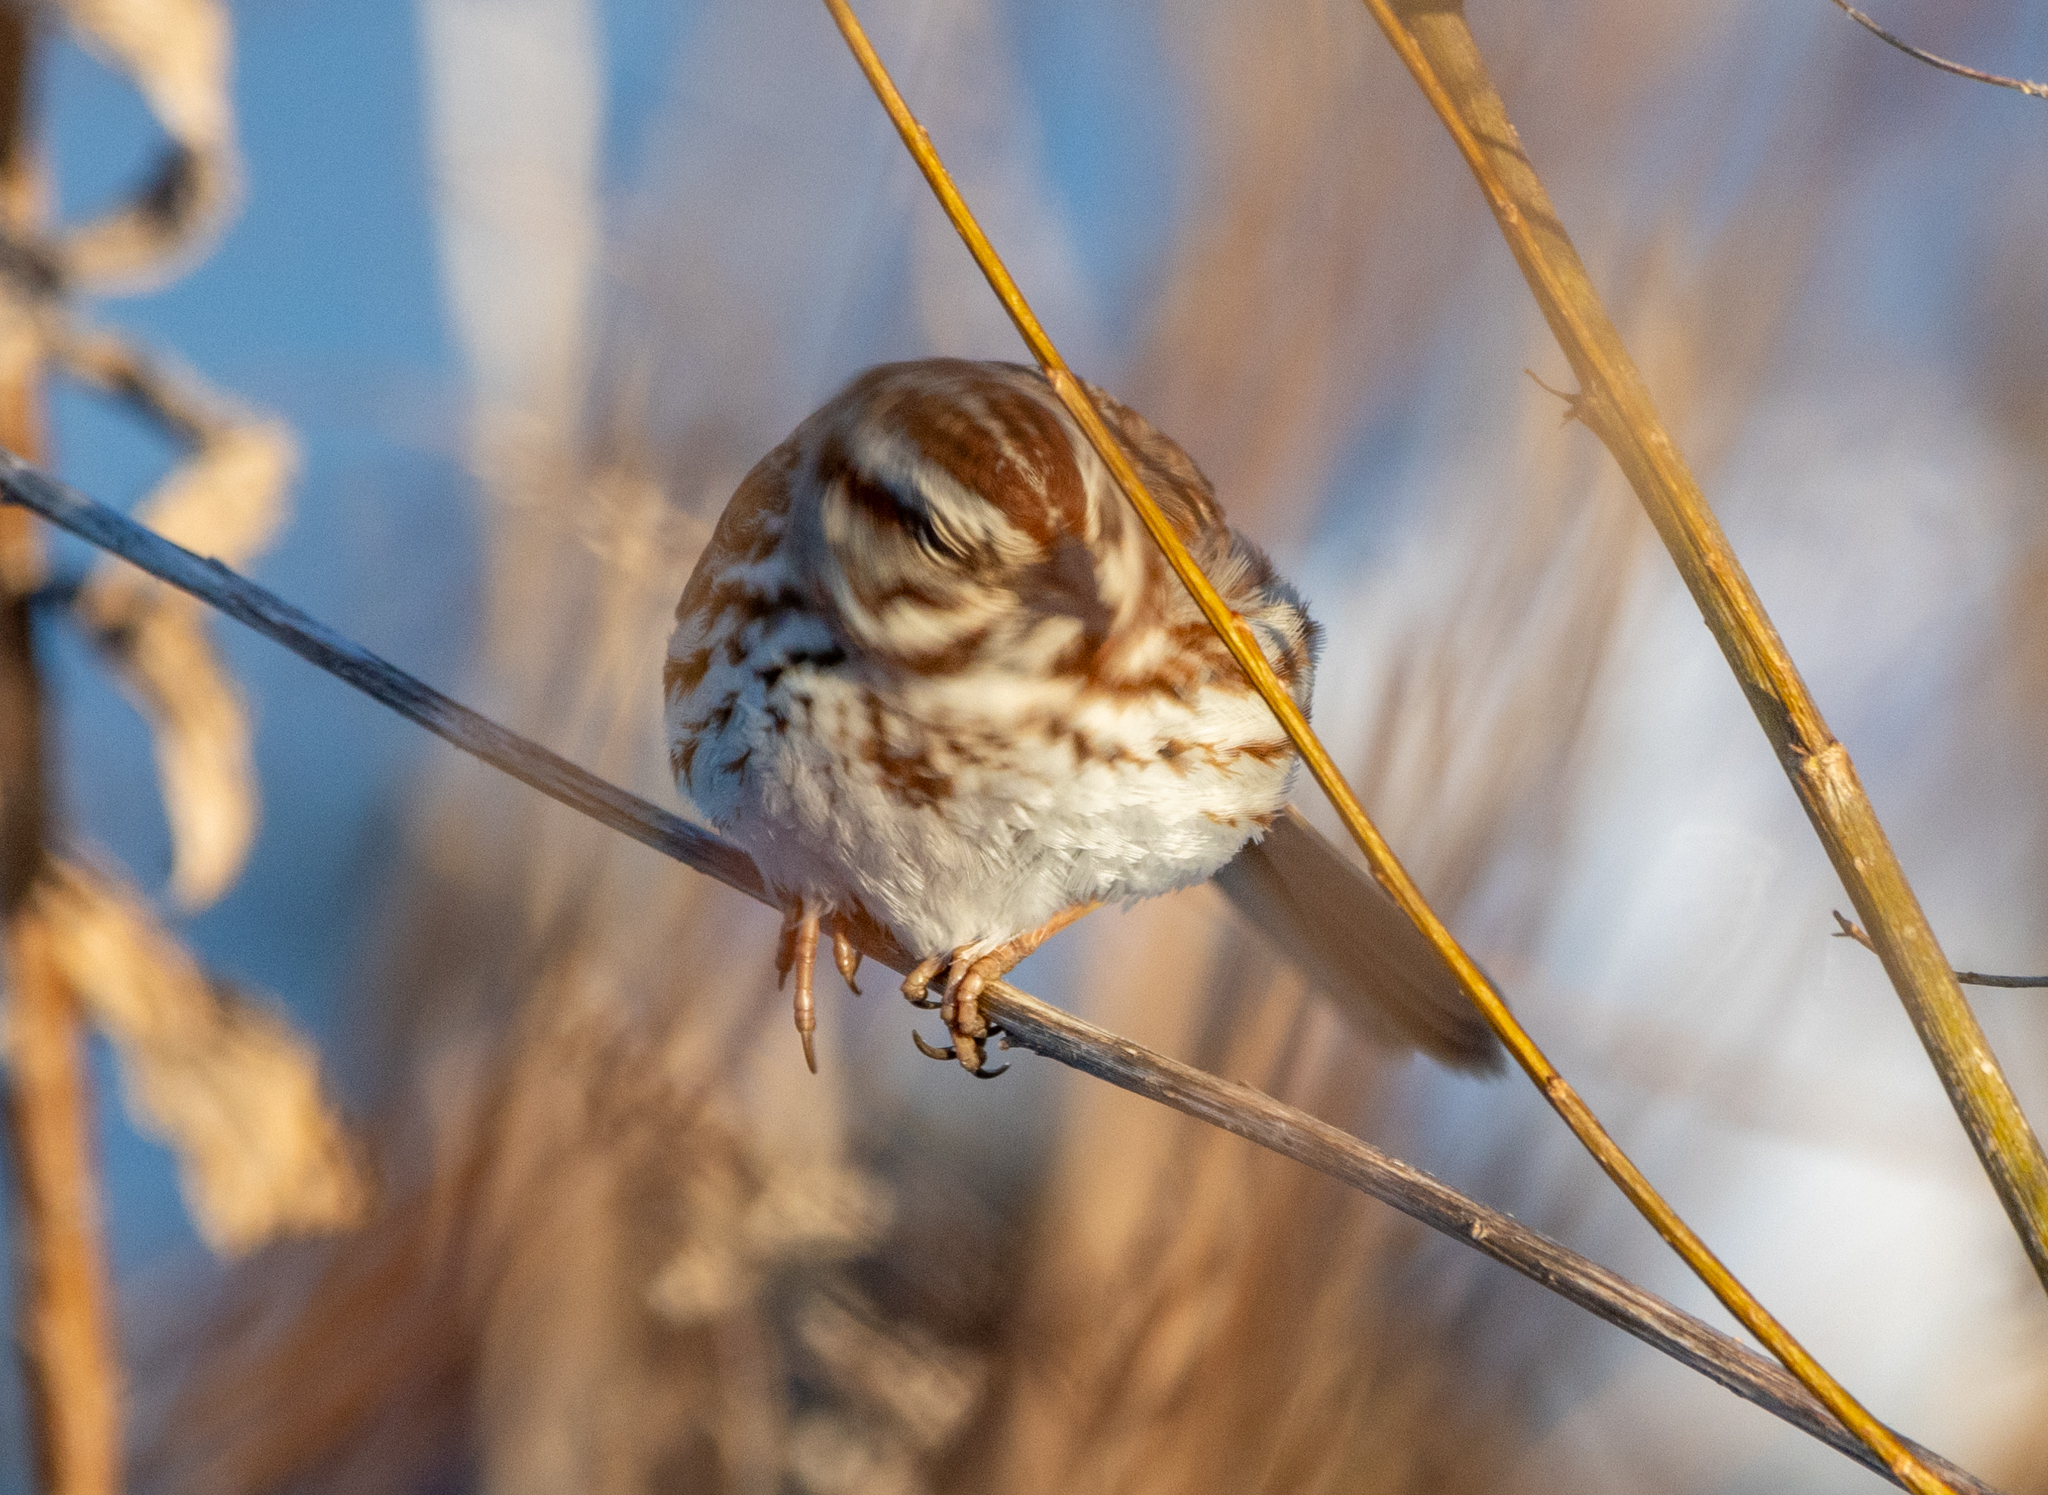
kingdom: Animalia
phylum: Chordata
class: Aves
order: Passeriformes
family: Passerellidae
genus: Melospiza
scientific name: Melospiza melodia
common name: Song sparrow
